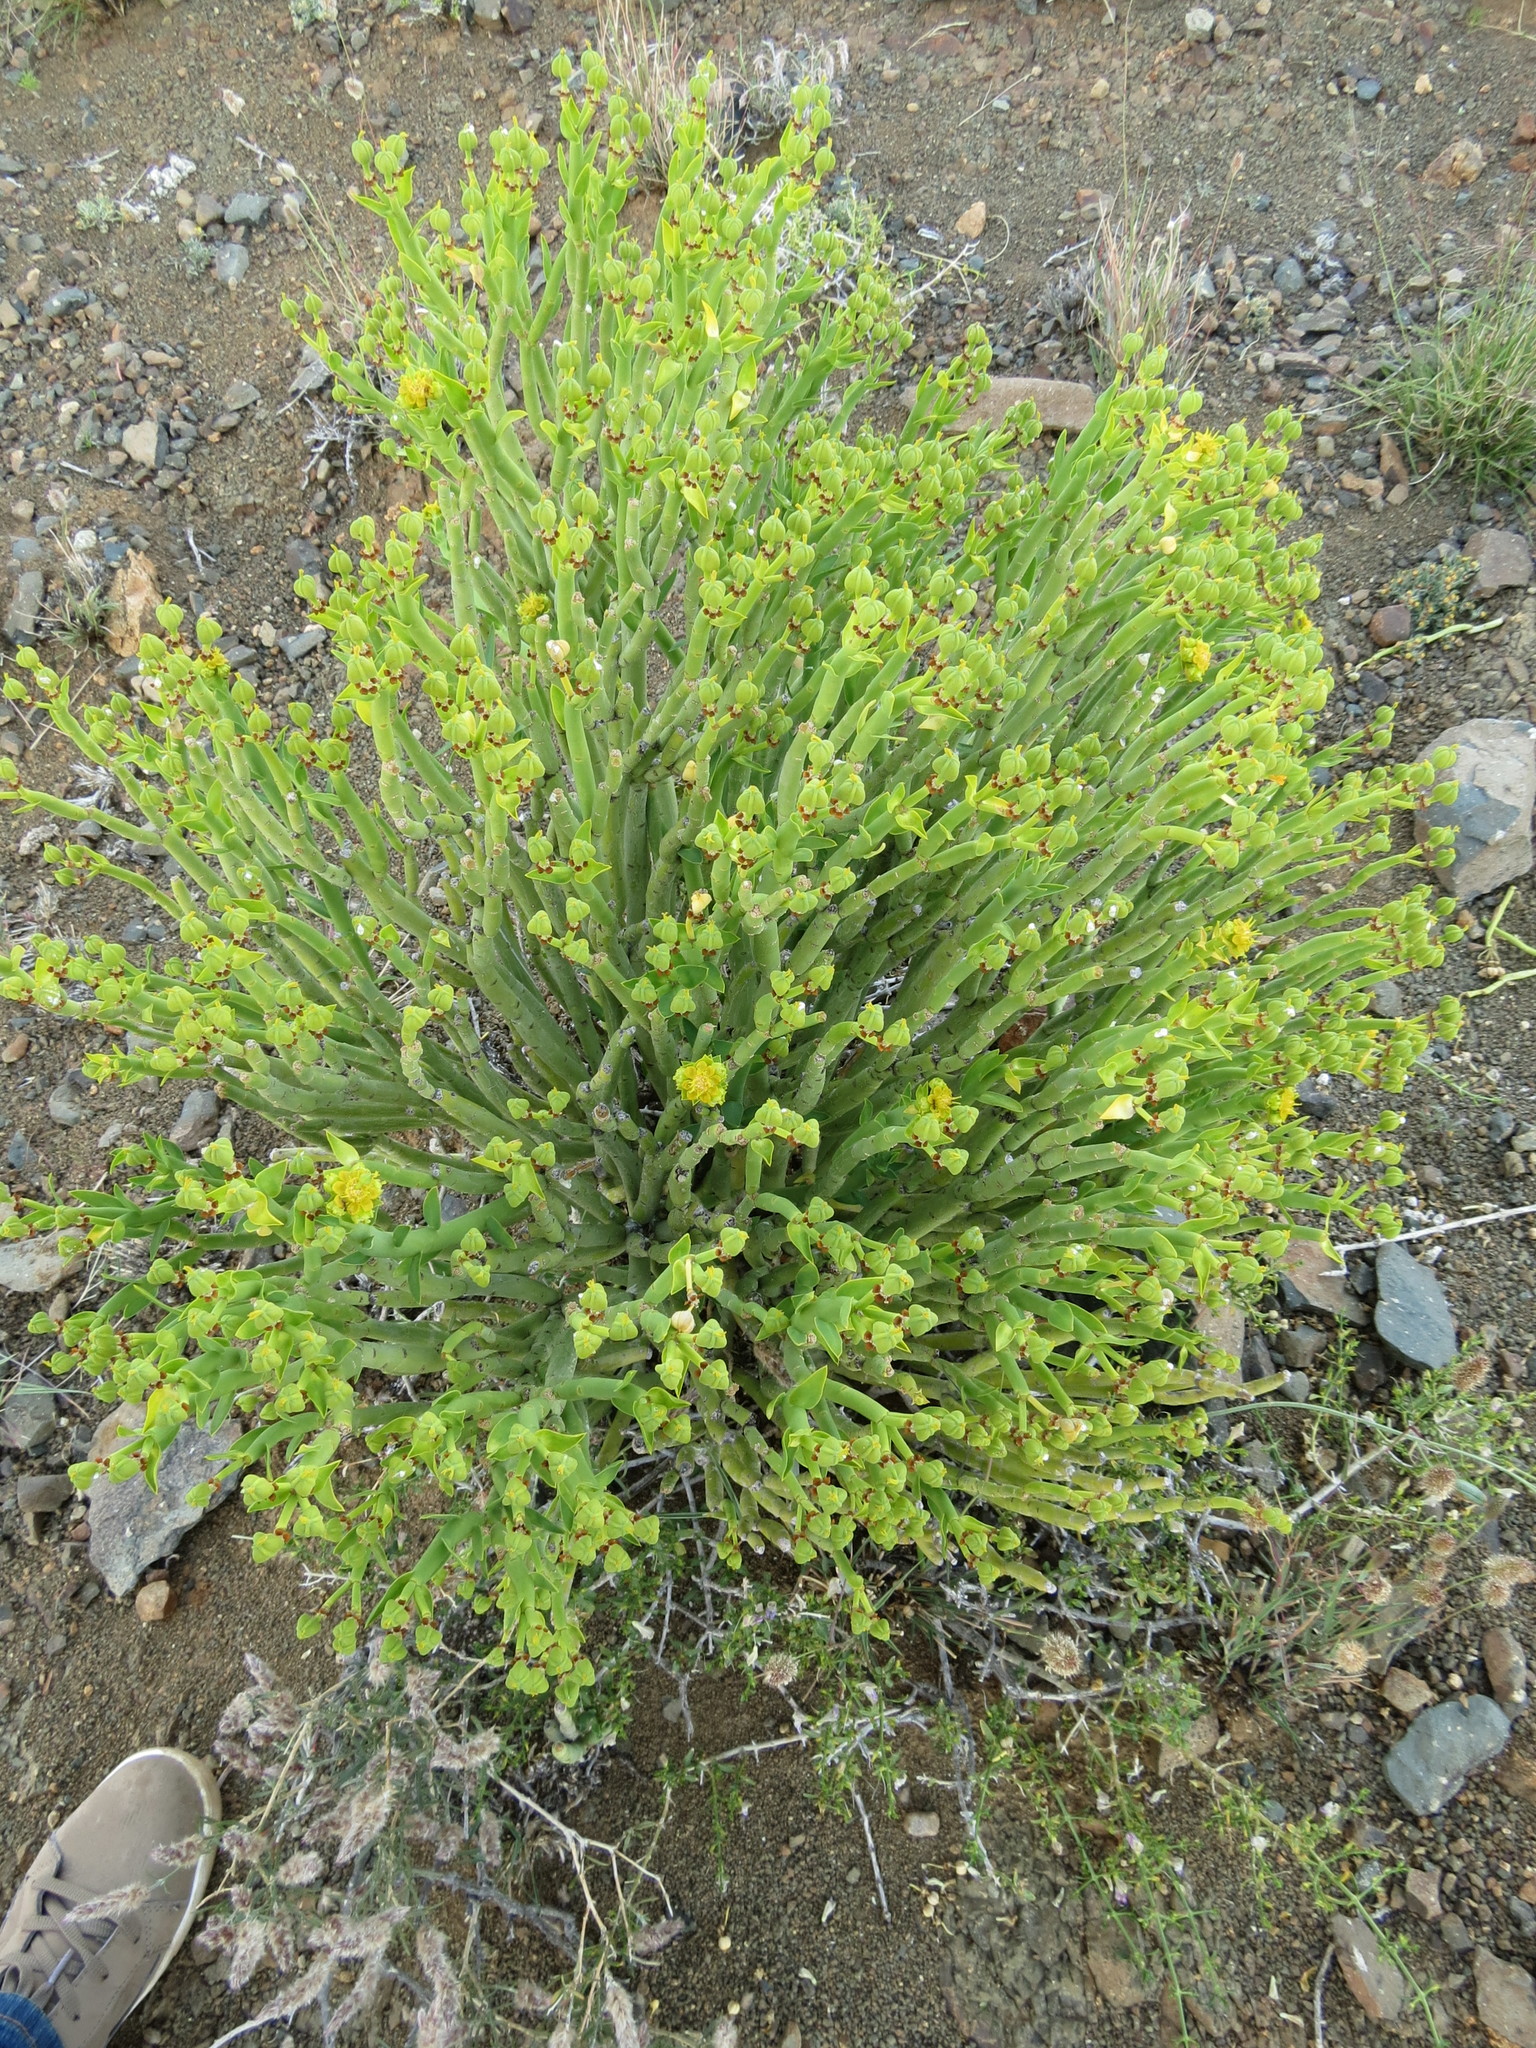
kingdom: Plantae
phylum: Tracheophyta
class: Magnoliopsida
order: Malpighiales
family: Euphorbiaceae
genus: Euphorbia
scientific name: Euphorbia mauritanica
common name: Jackal's-food
